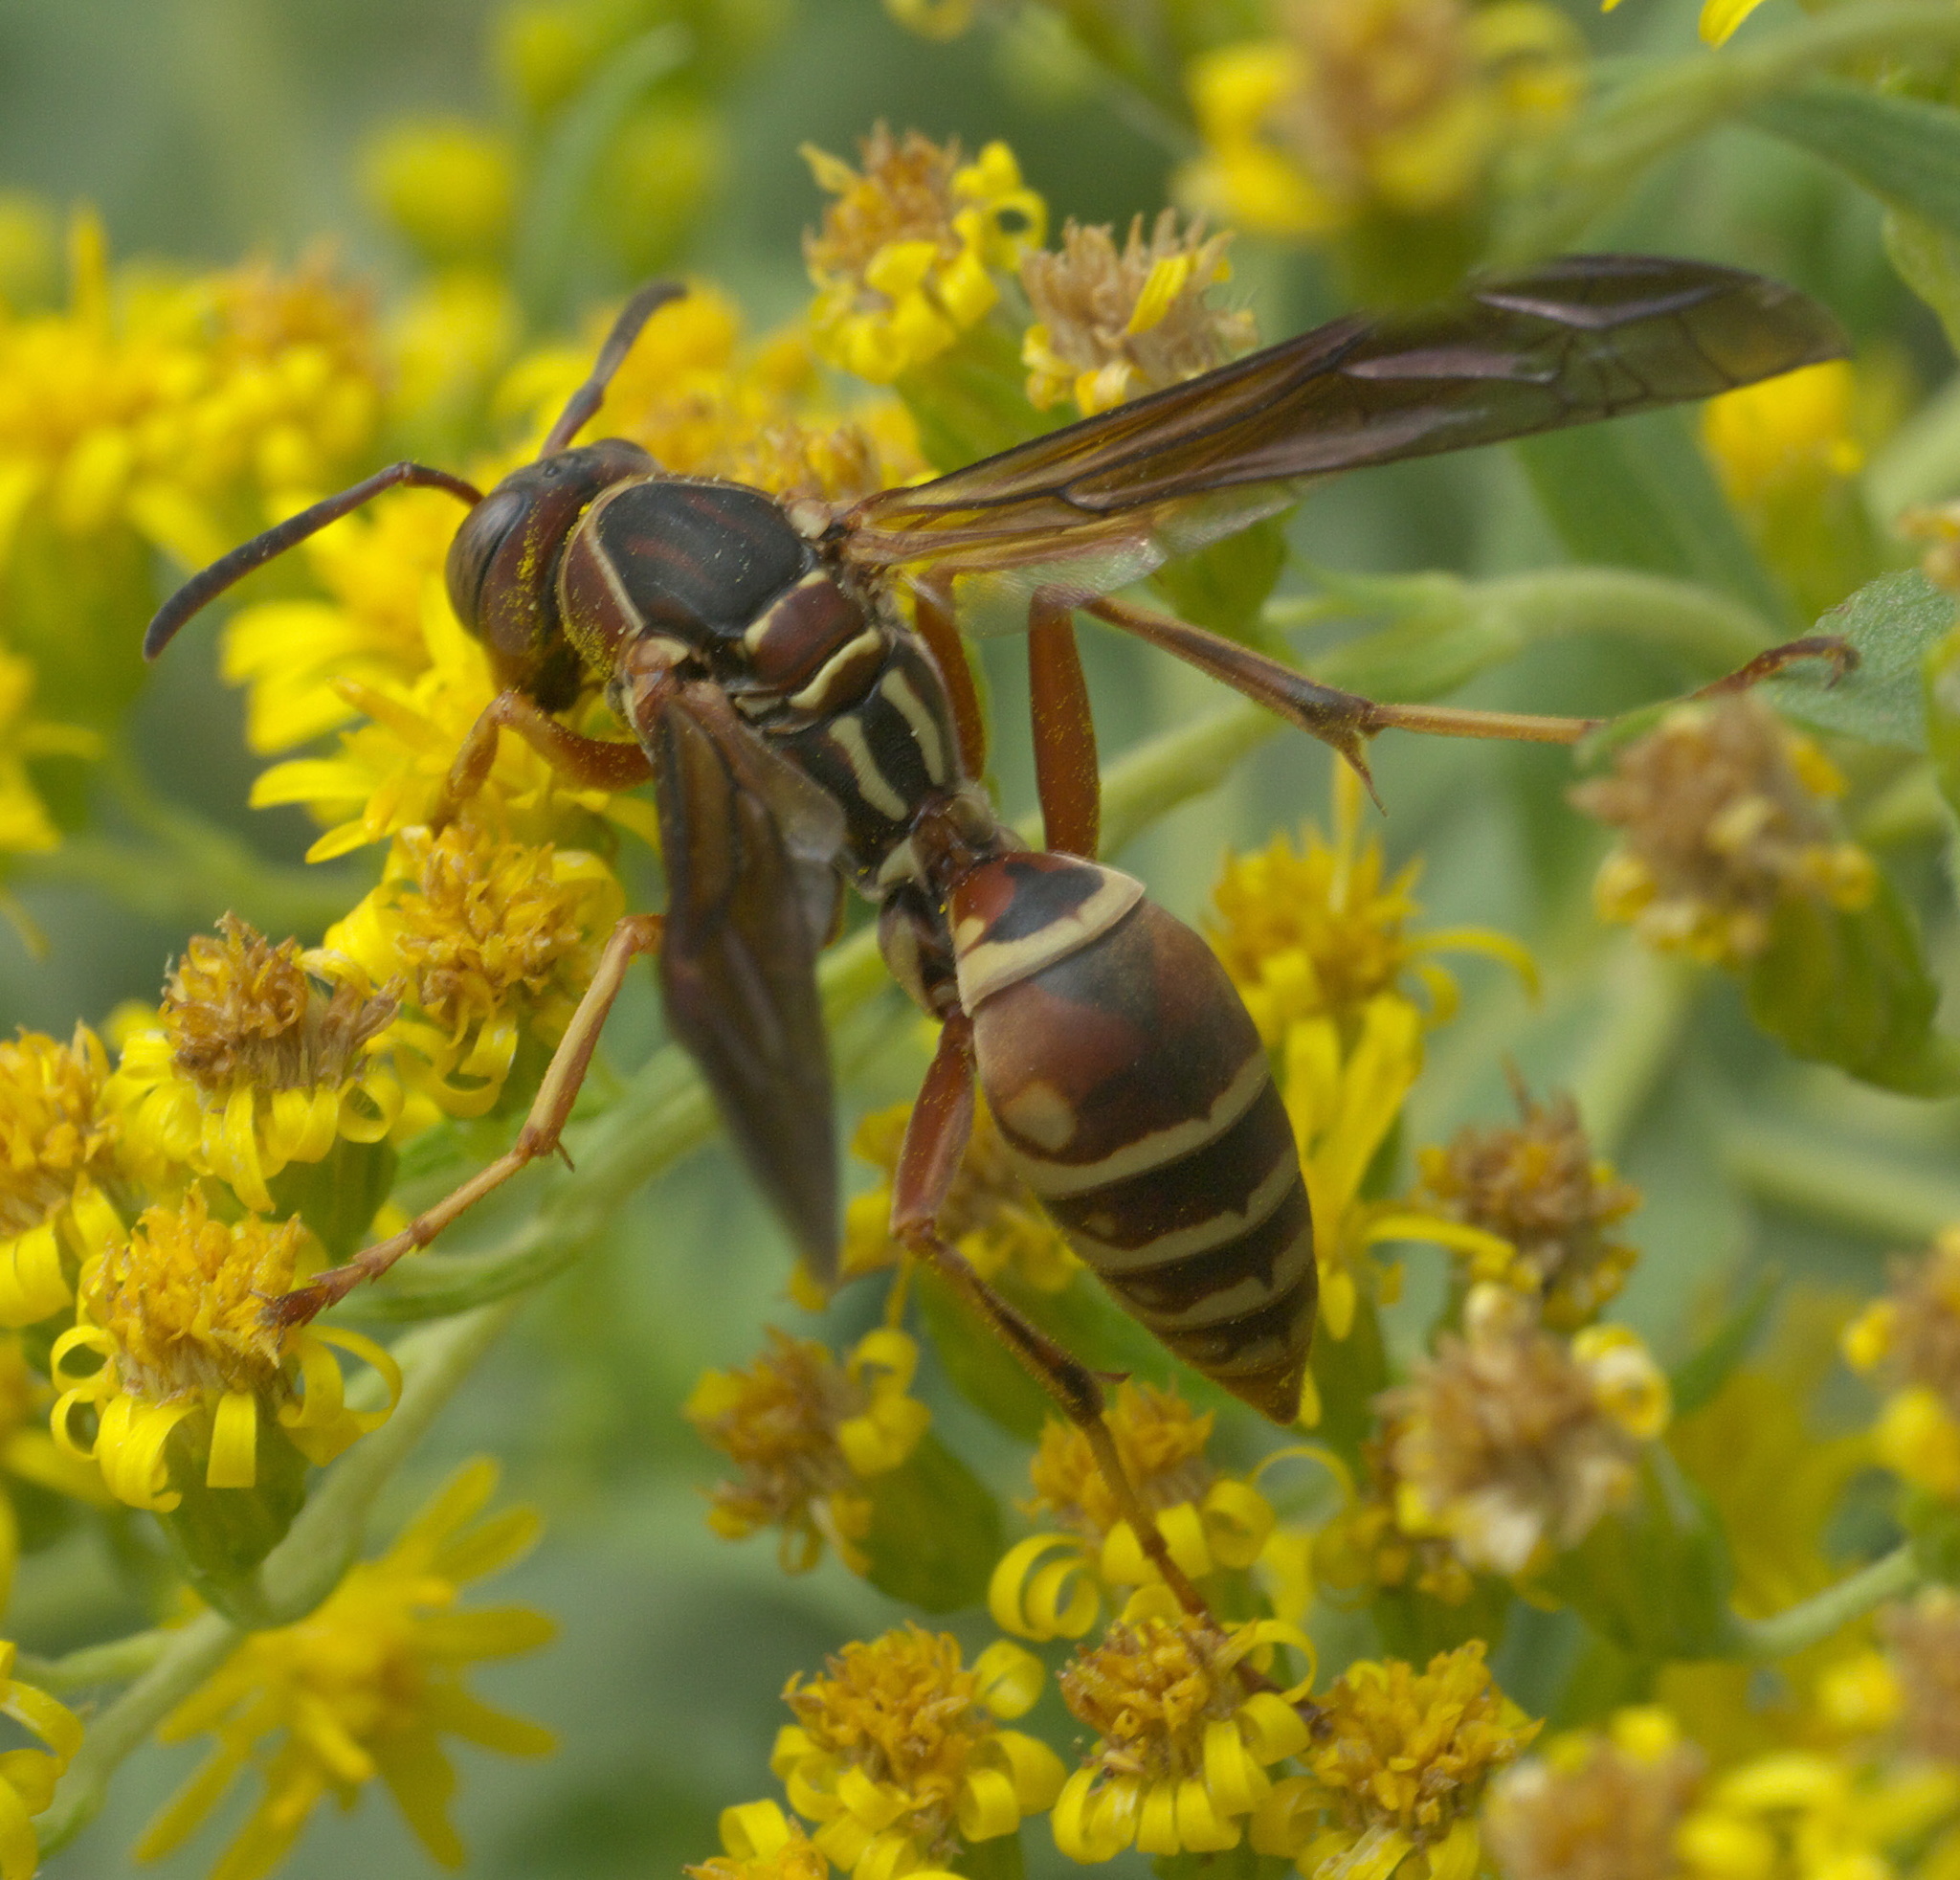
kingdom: Animalia
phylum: Arthropoda
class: Insecta
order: Hymenoptera
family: Eumenidae
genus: Polistes
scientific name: Polistes fuscatus
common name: Dark paper wasp
